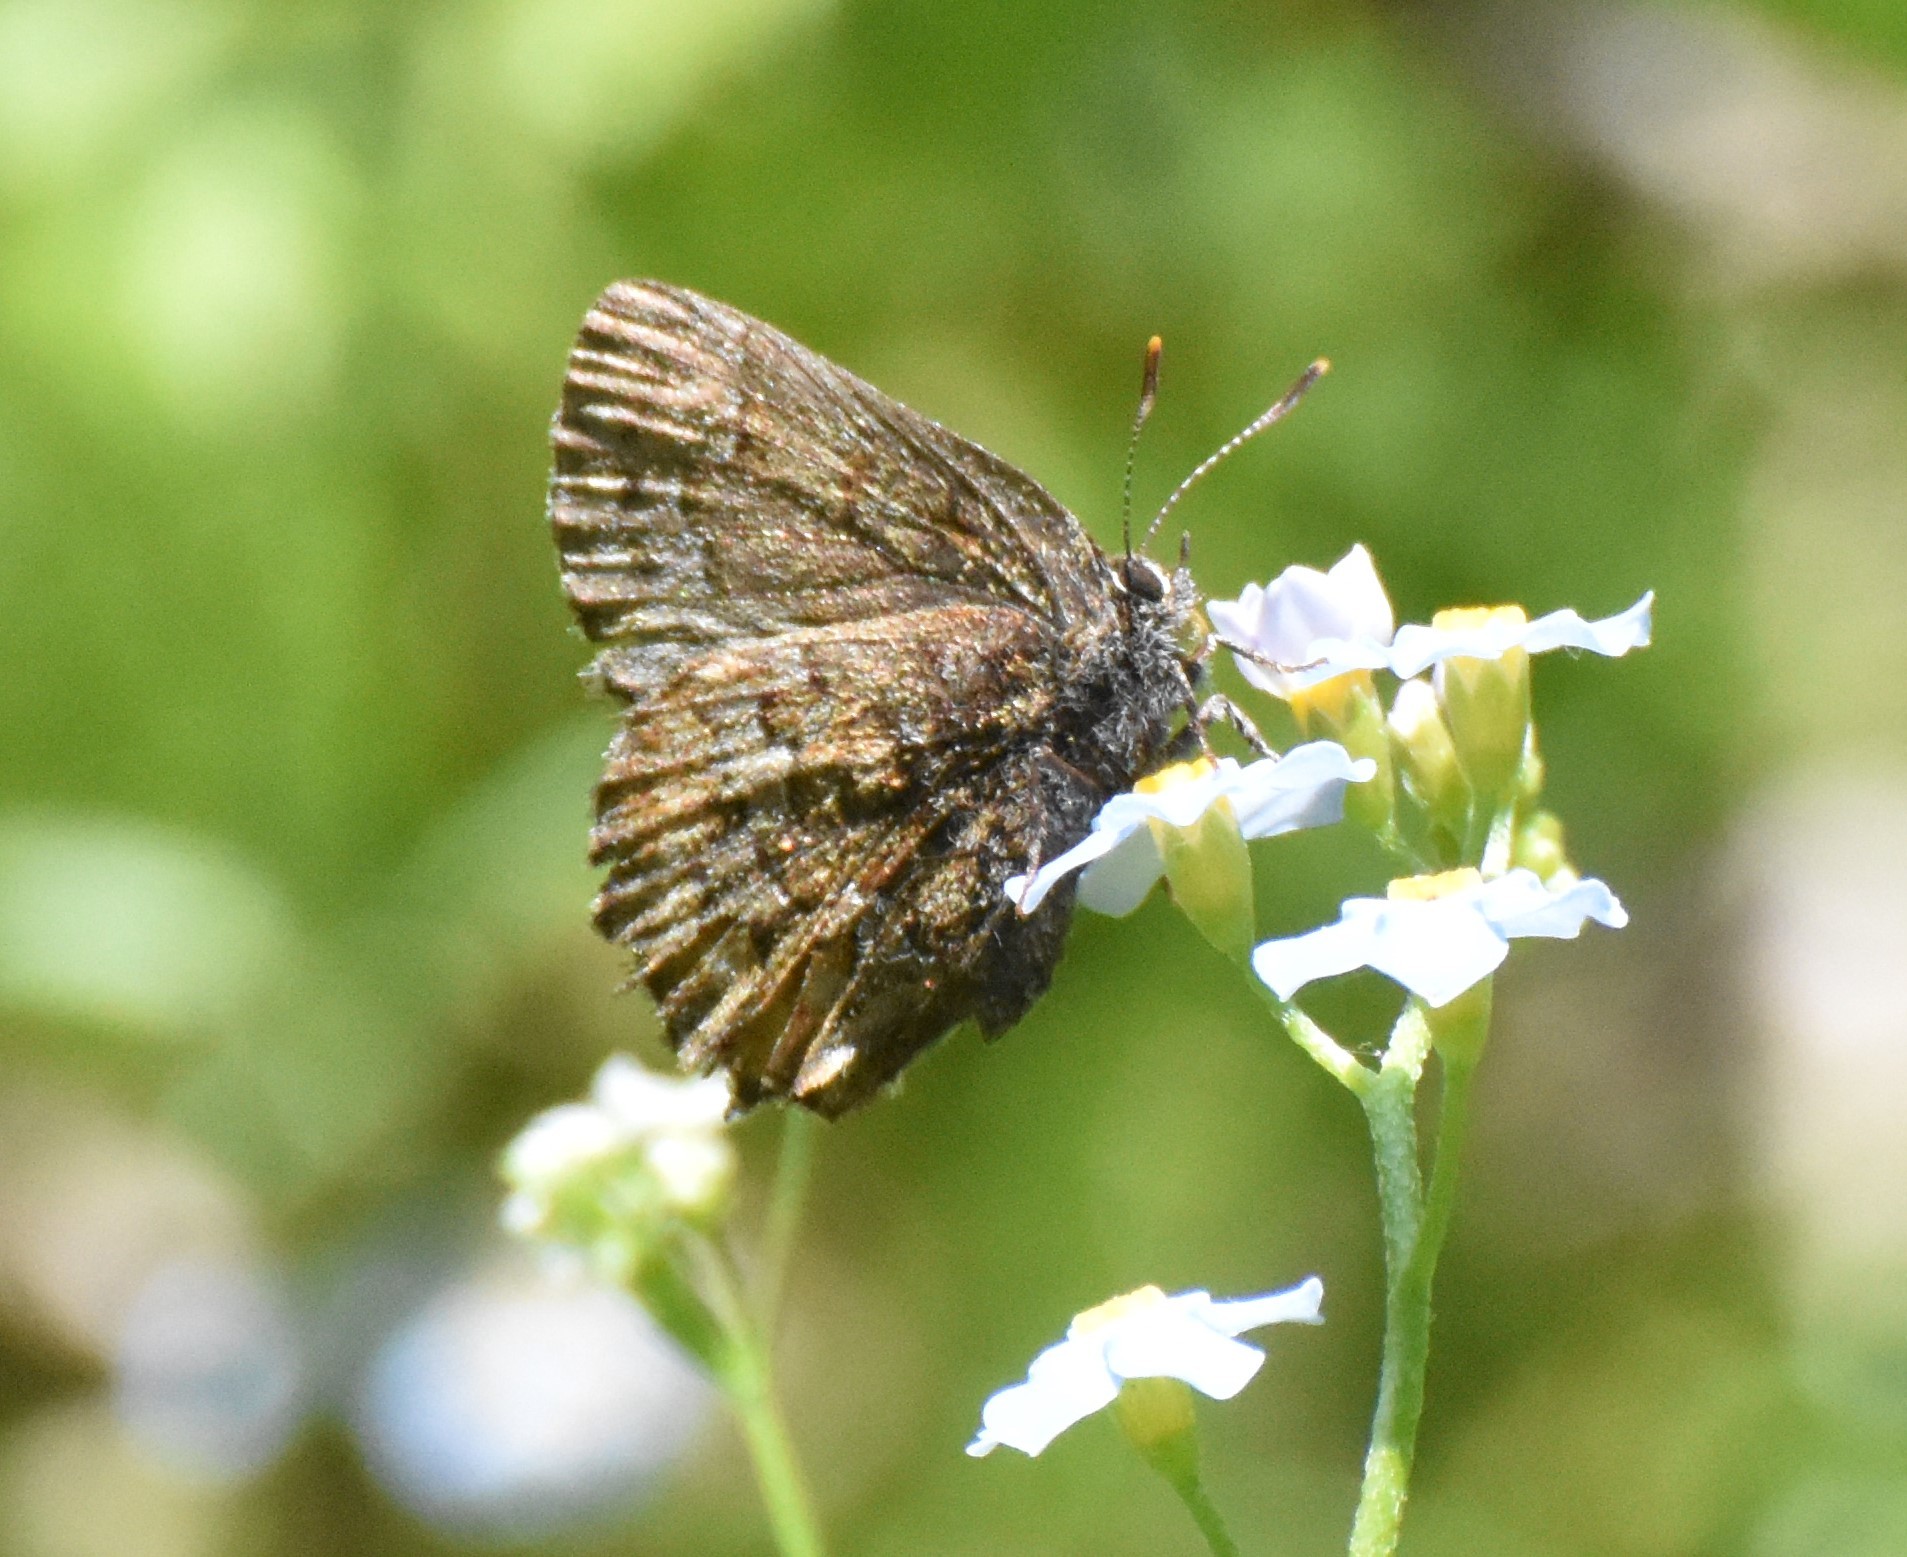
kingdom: Animalia
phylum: Arthropoda
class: Insecta
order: Lepidoptera
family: Lycaenidae
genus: Incisalia
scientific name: Incisalia niphon
